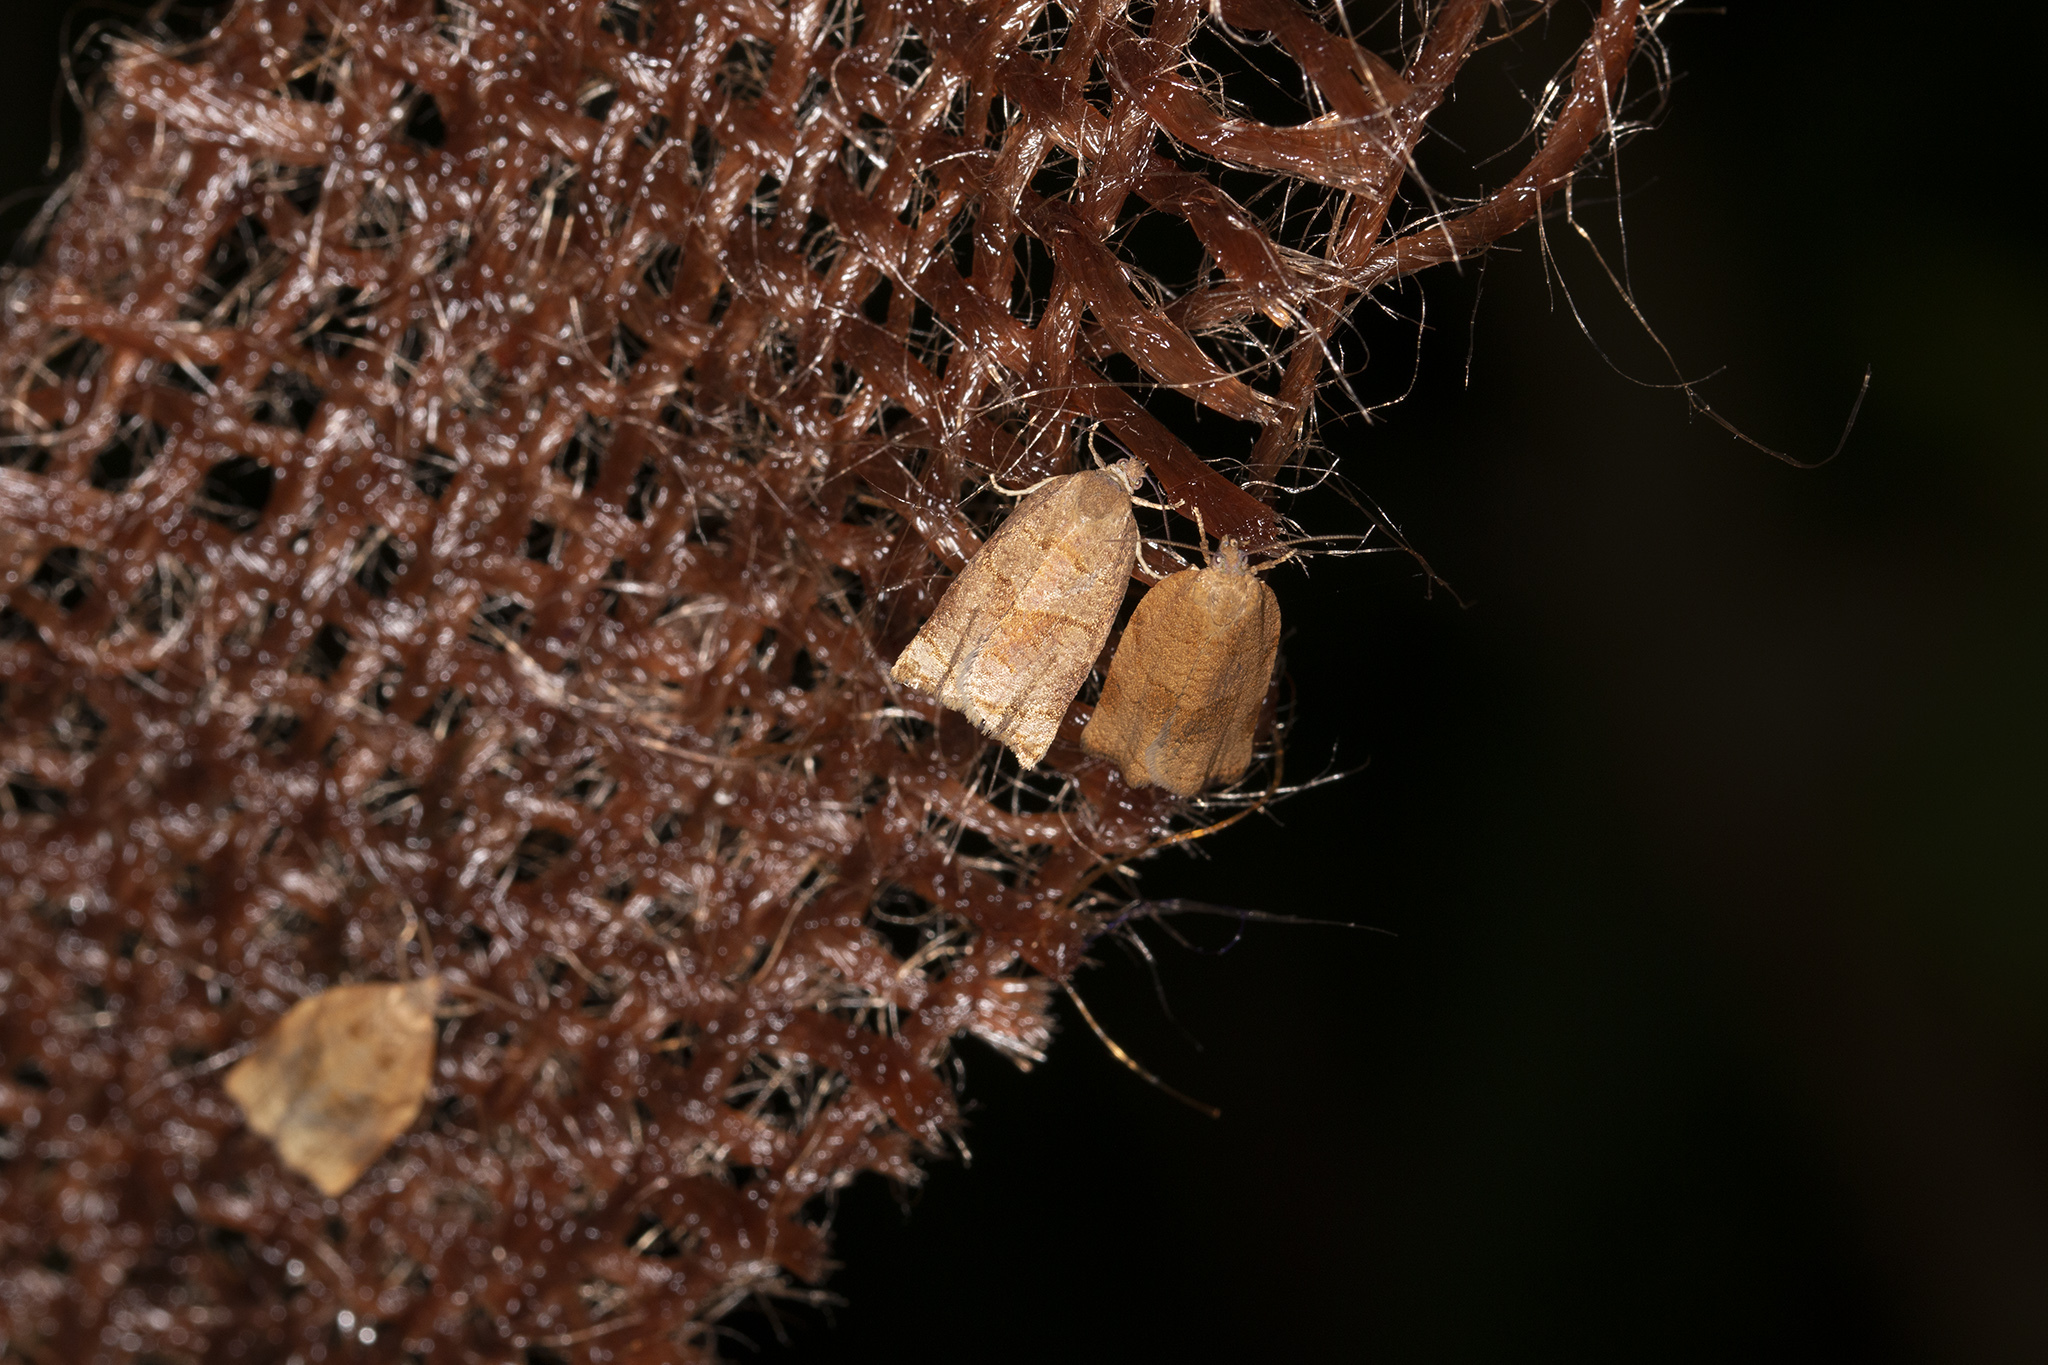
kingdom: Animalia
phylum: Arthropoda
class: Insecta
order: Lepidoptera
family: Tortricidae
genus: Archips
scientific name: Archips rosana
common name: Rose tortrix
